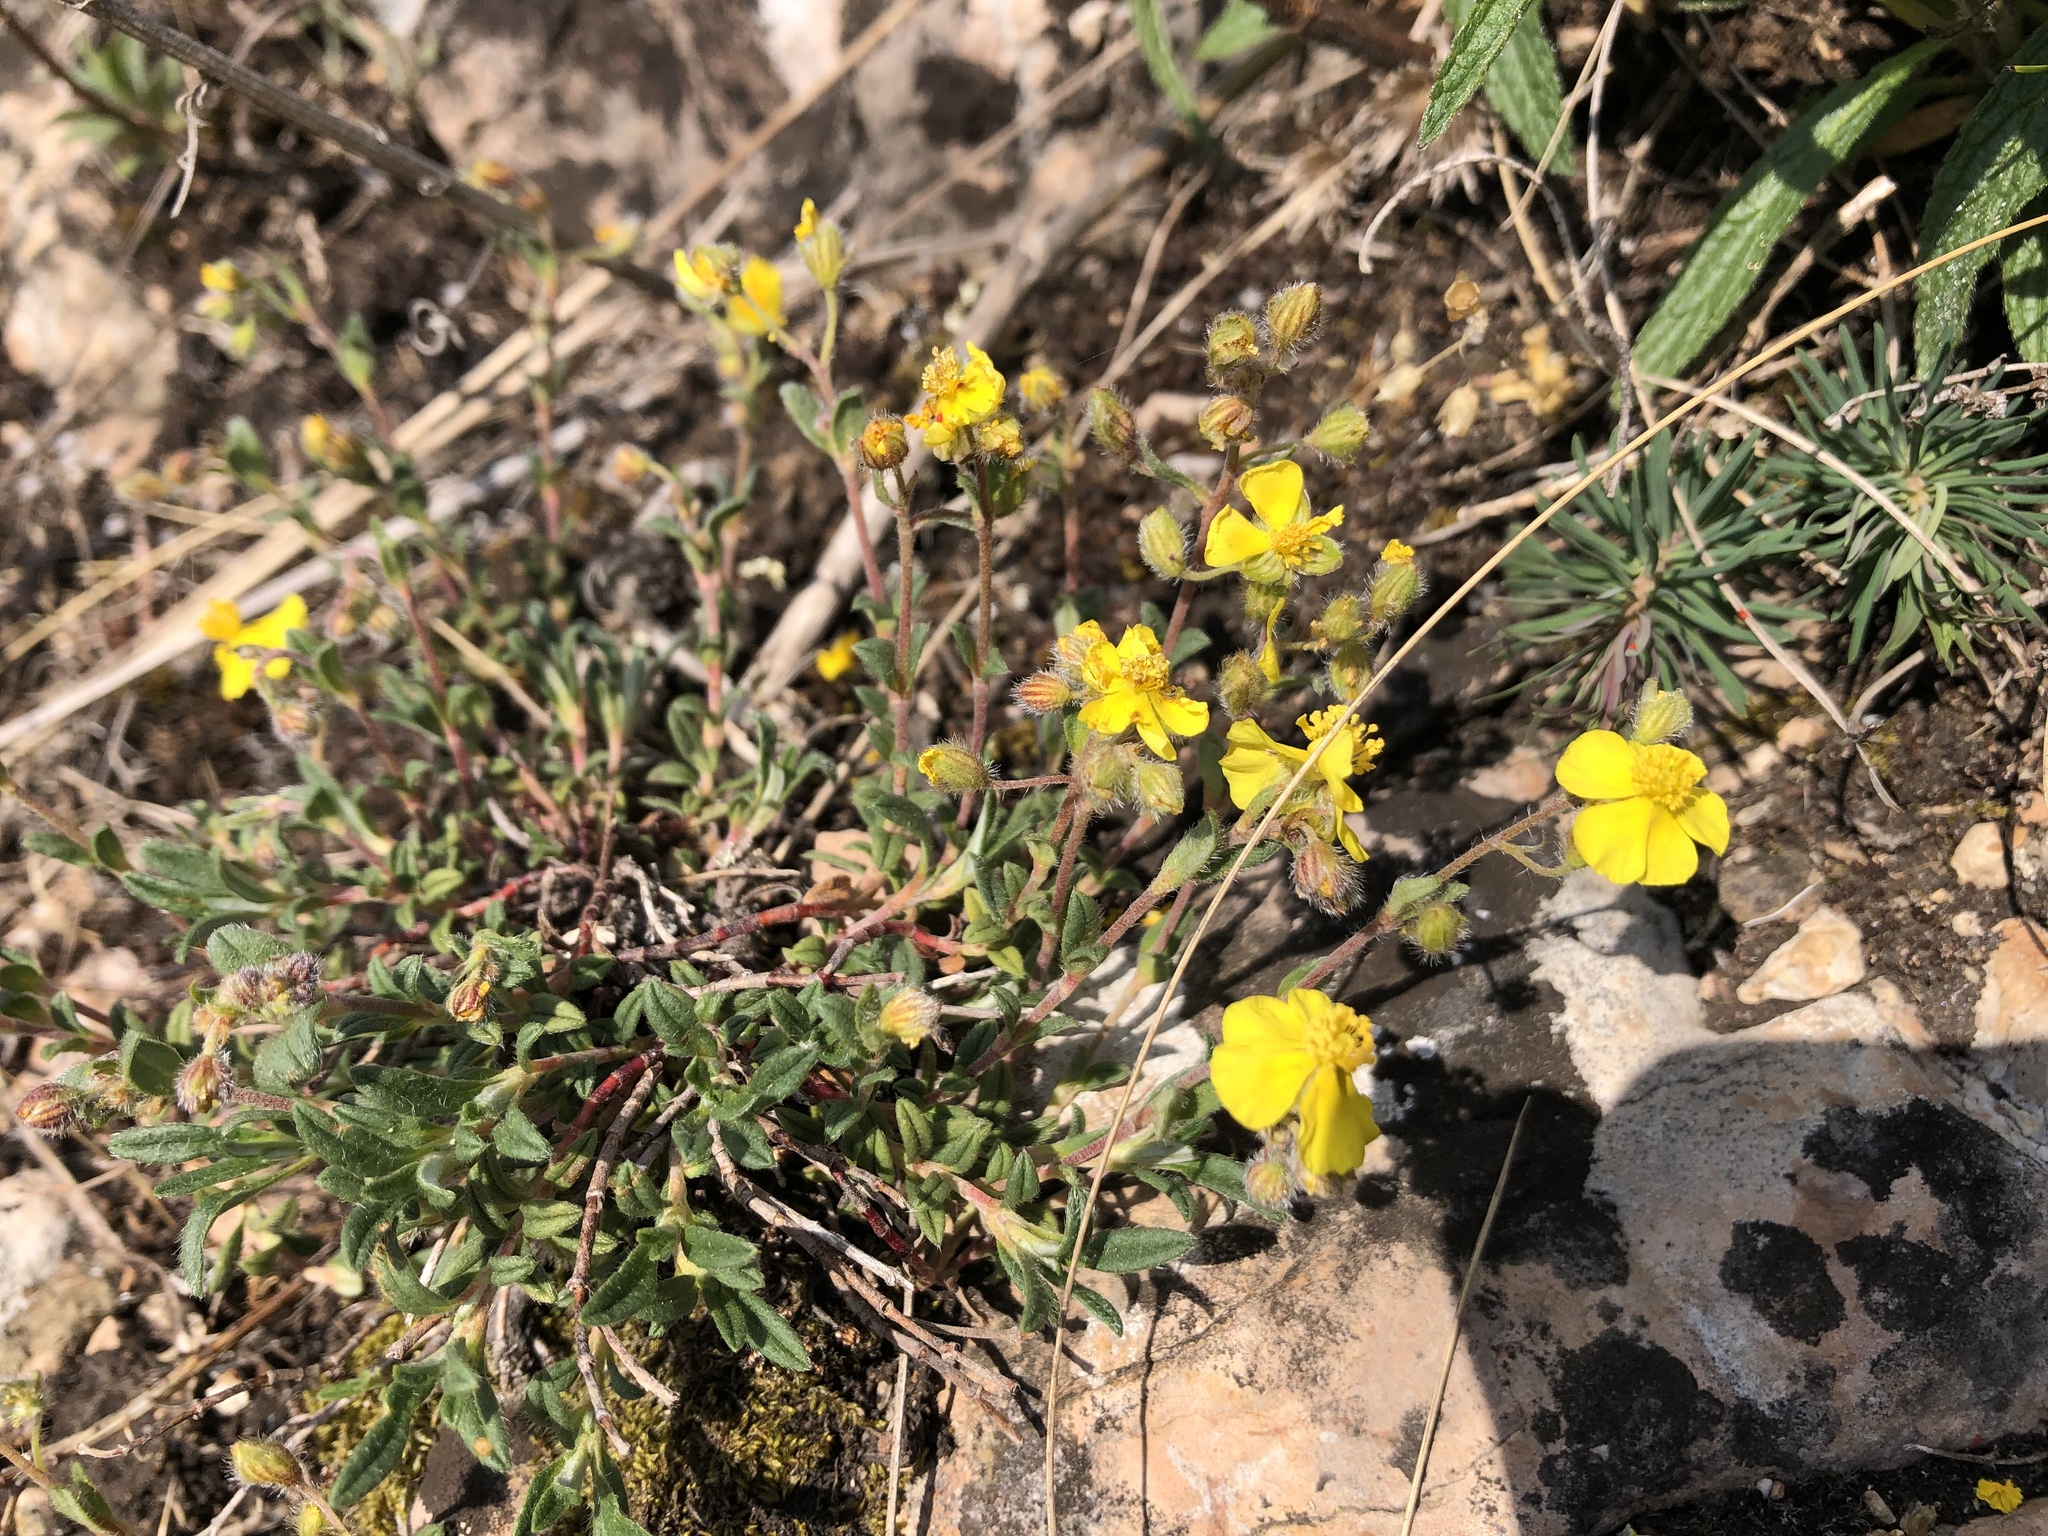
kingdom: Plantae
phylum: Tracheophyta
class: Magnoliopsida
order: Malvales
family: Cistaceae
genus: Helianthemum
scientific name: Helianthemum canum
